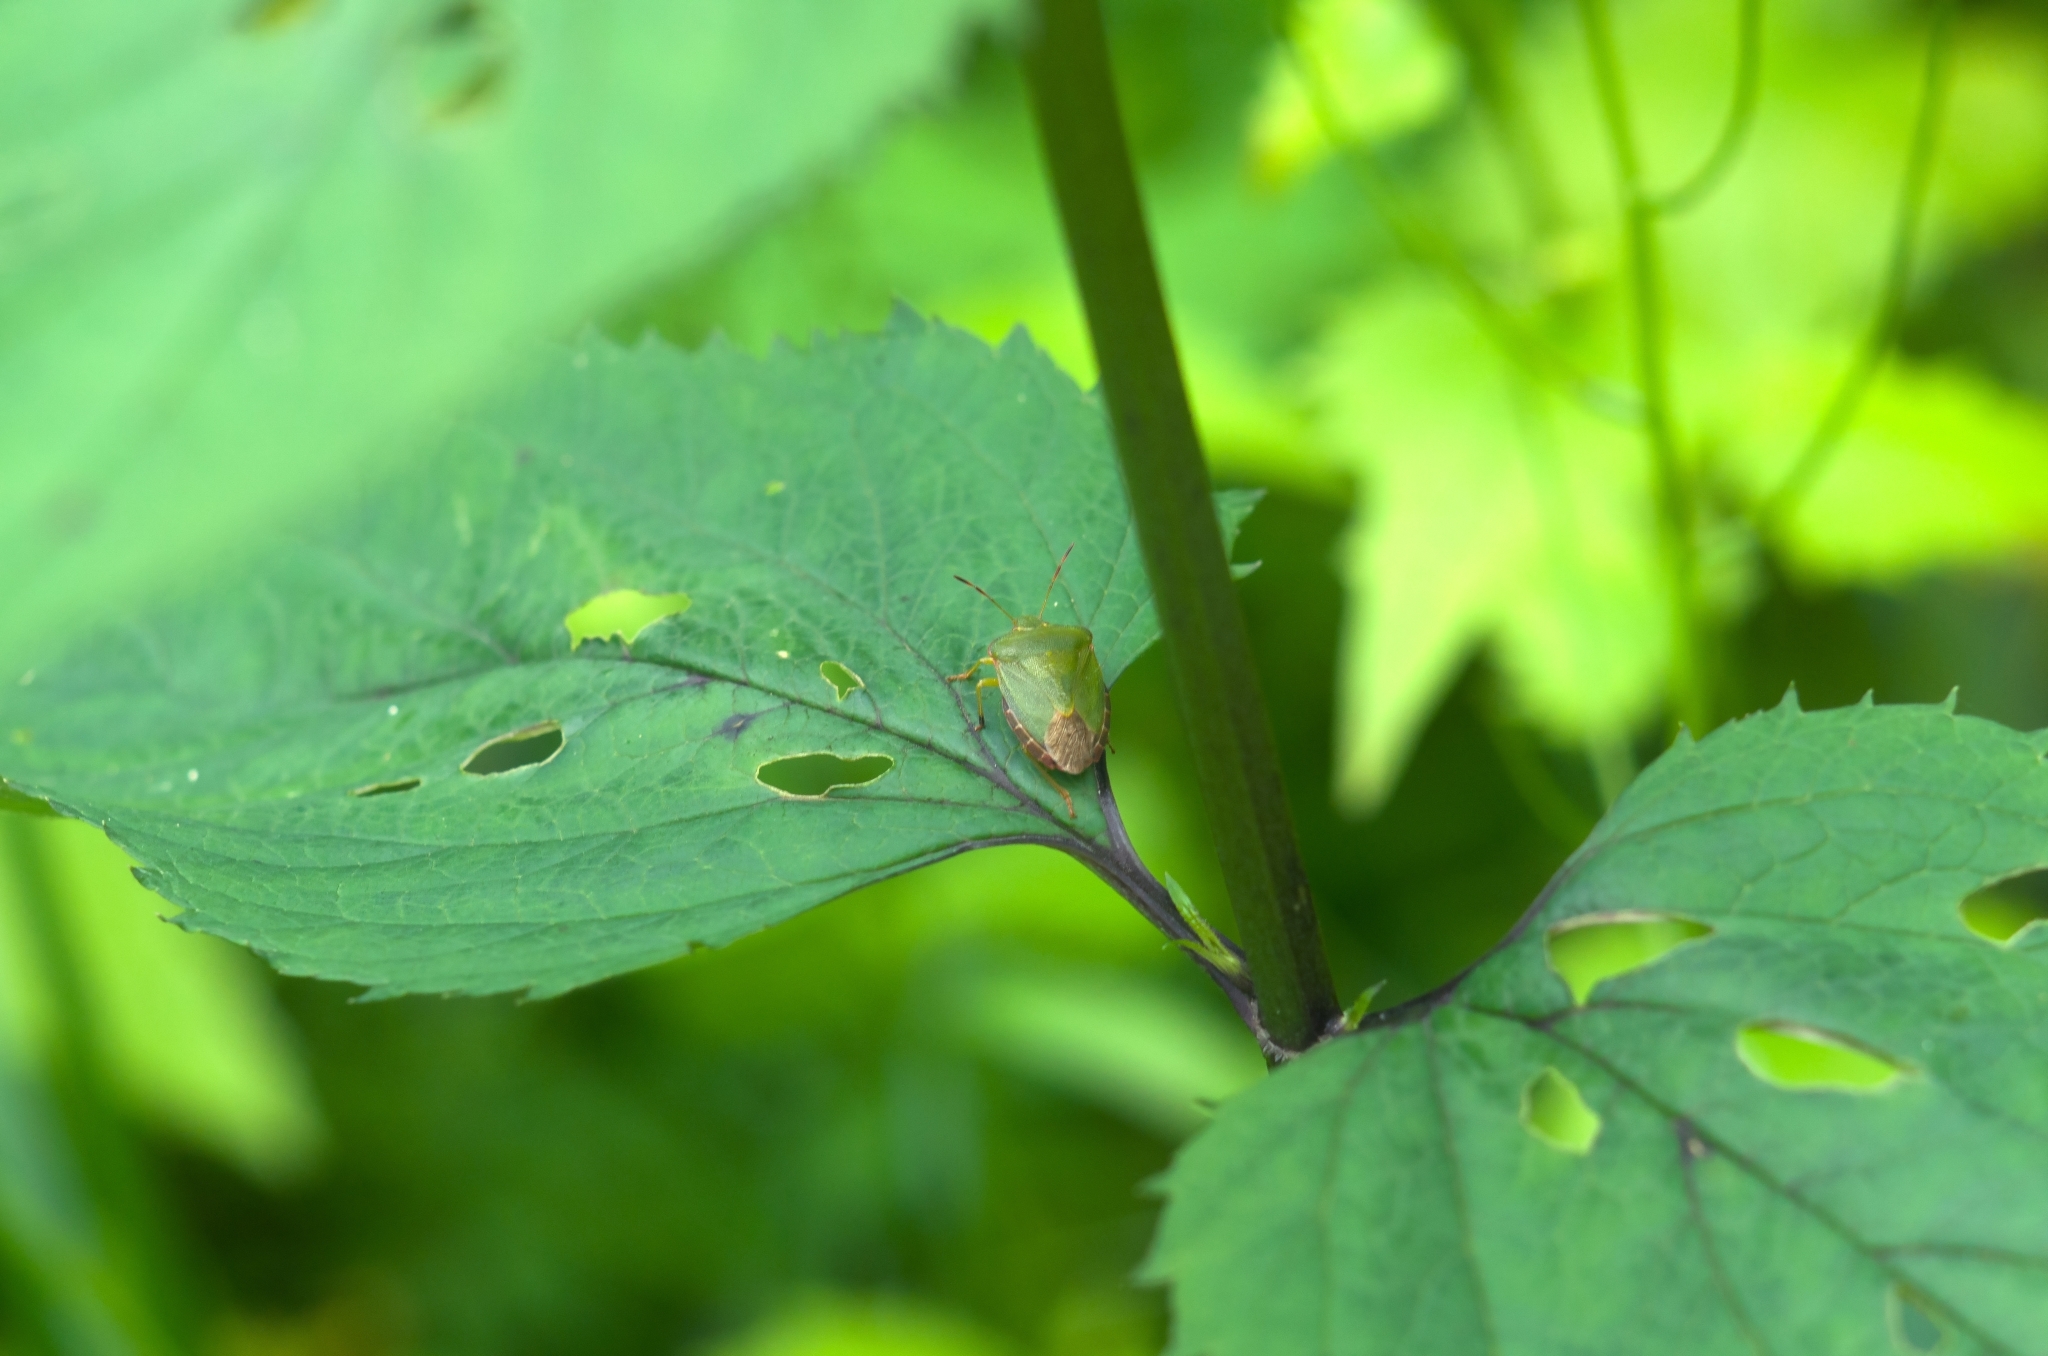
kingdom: Animalia
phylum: Arthropoda
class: Insecta
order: Hemiptera
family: Pentatomidae
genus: Palomena
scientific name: Palomena prasina
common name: Green shieldbug
